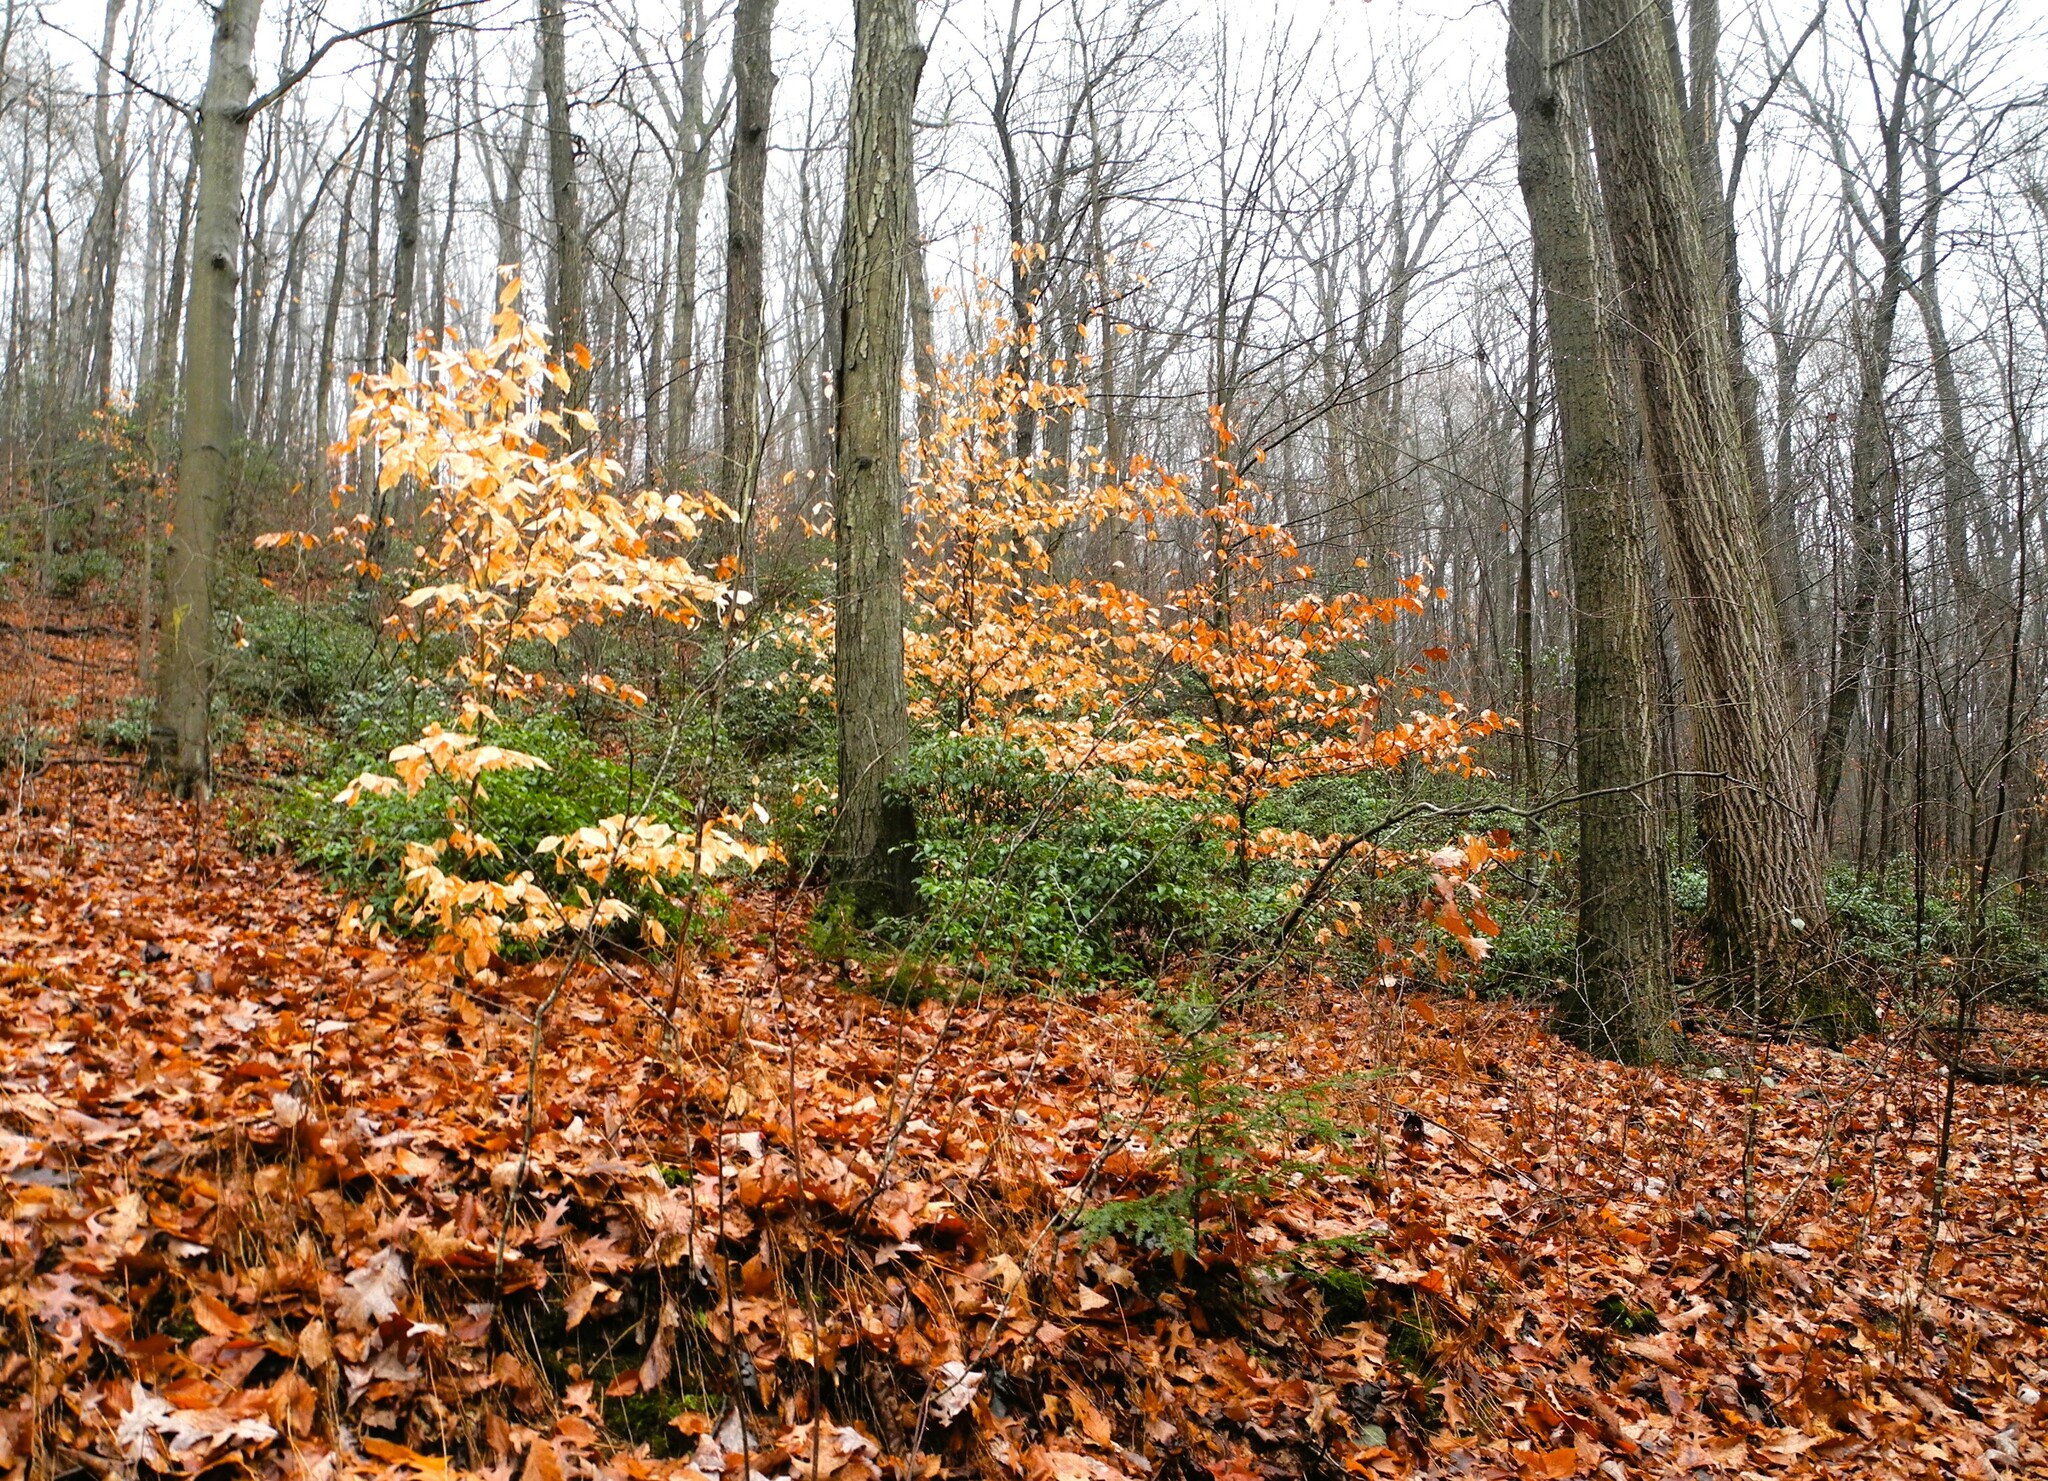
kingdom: Plantae
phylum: Tracheophyta
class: Magnoliopsida
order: Fagales
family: Fagaceae
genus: Fagus
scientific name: Fagus grandifolia
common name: American beech
